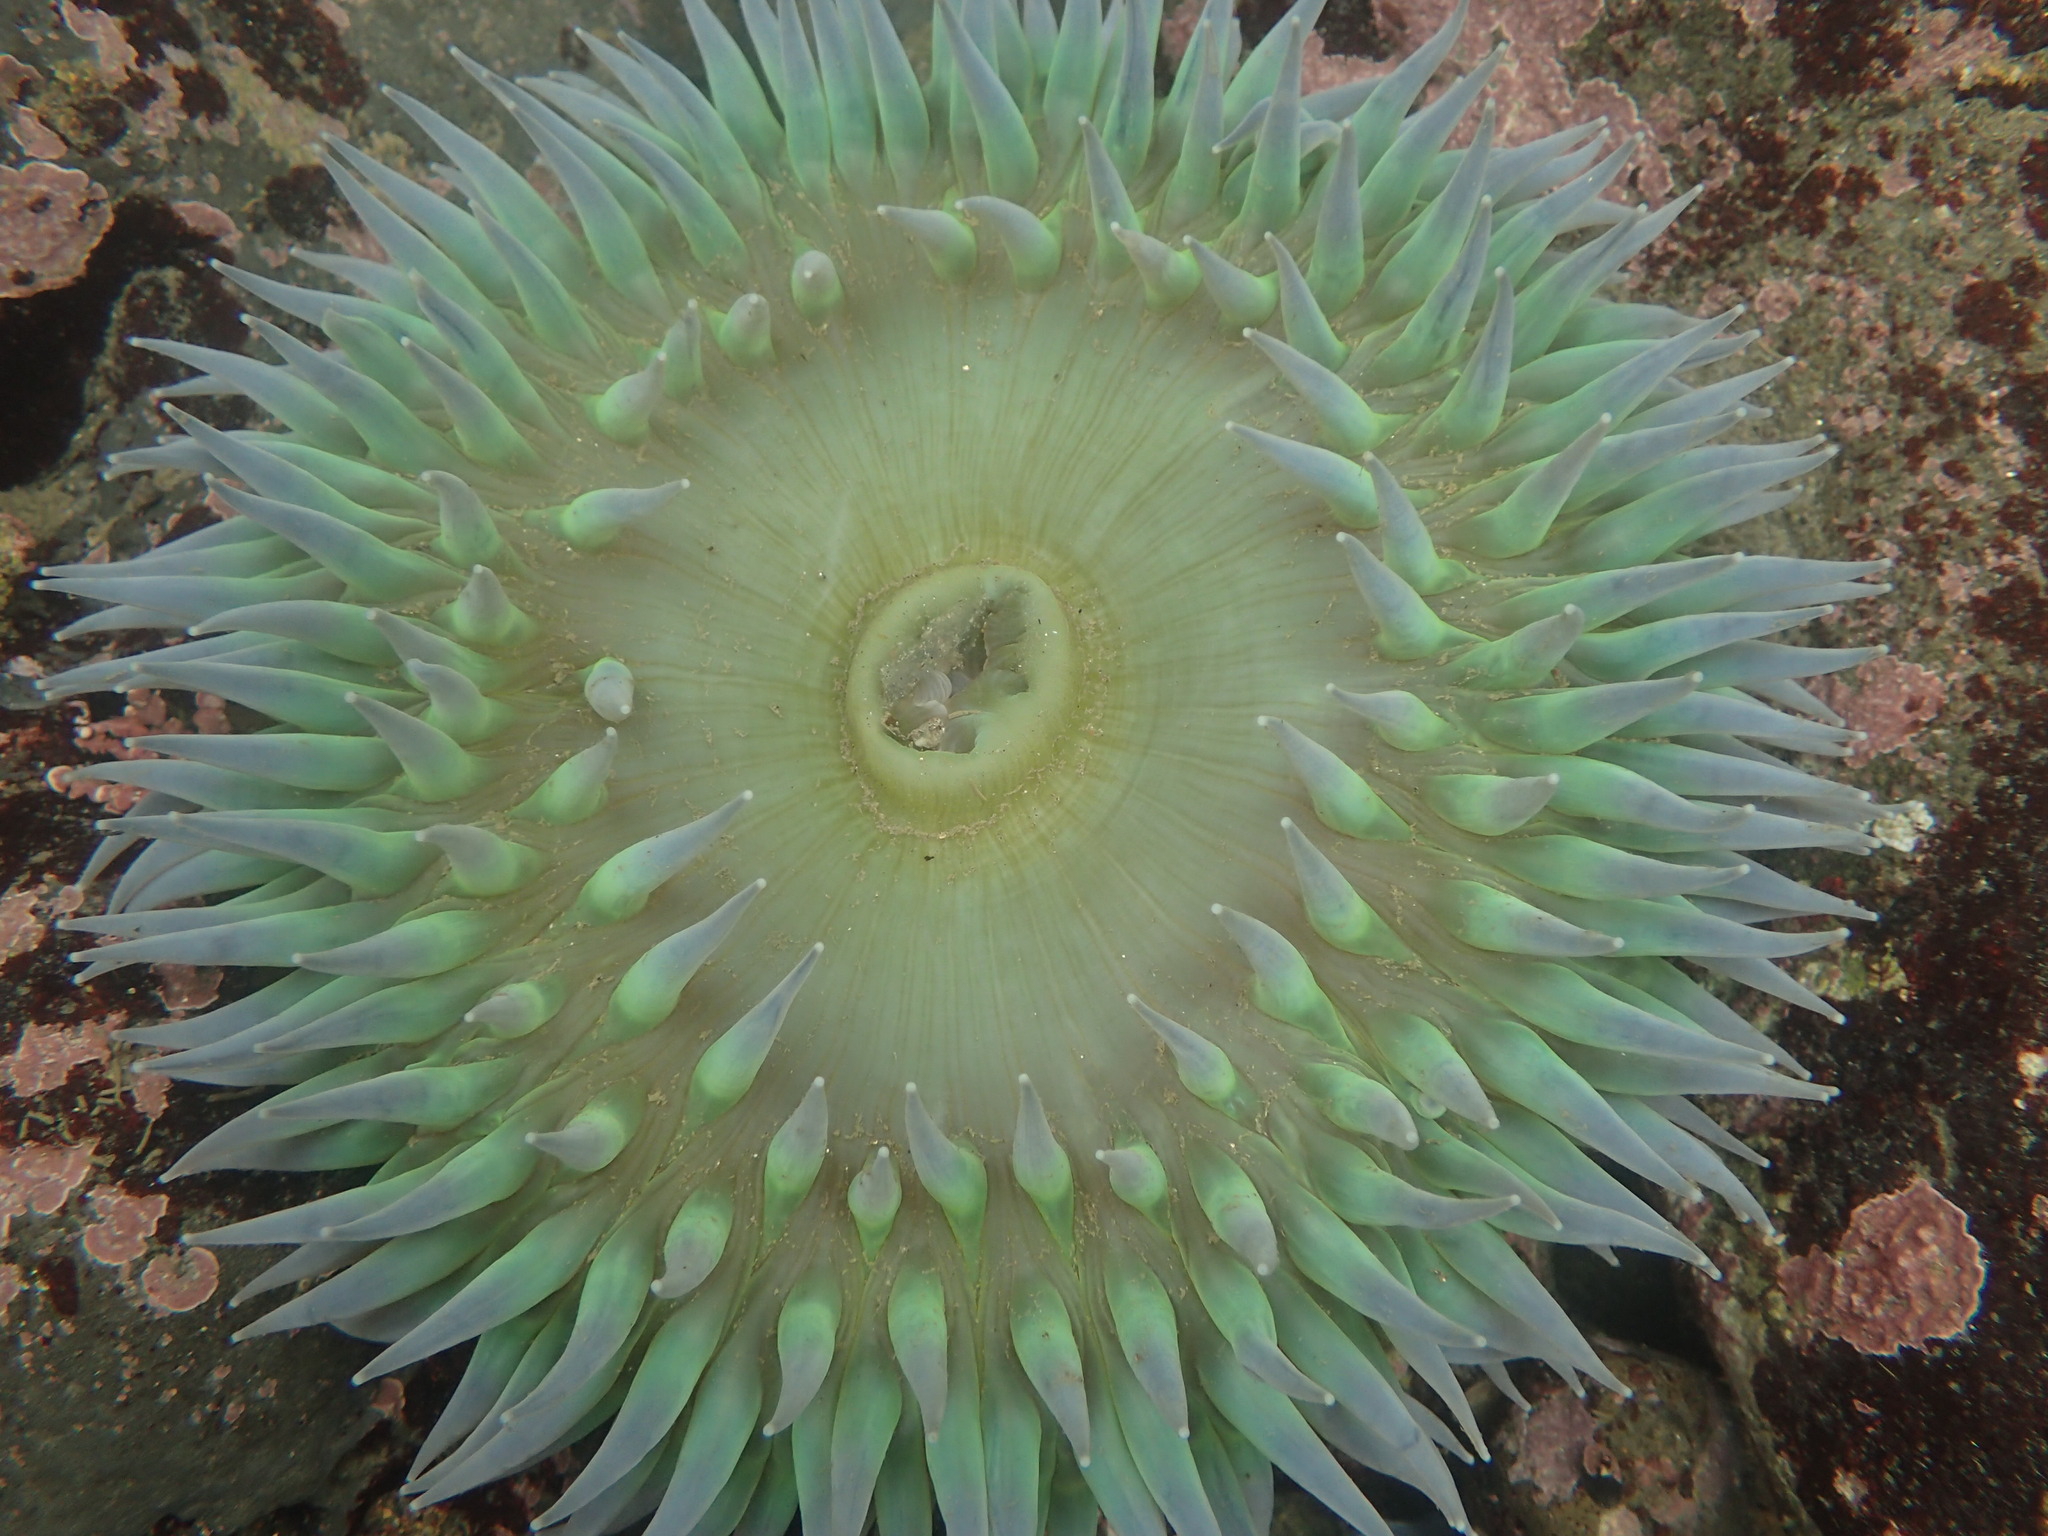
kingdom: Animalia
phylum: Cnidaria
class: Anthozoa
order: Actiniaria
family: Actiniidae
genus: Anthopleura
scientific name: Anthopleura xanthogrammica
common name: Giant green anemone
